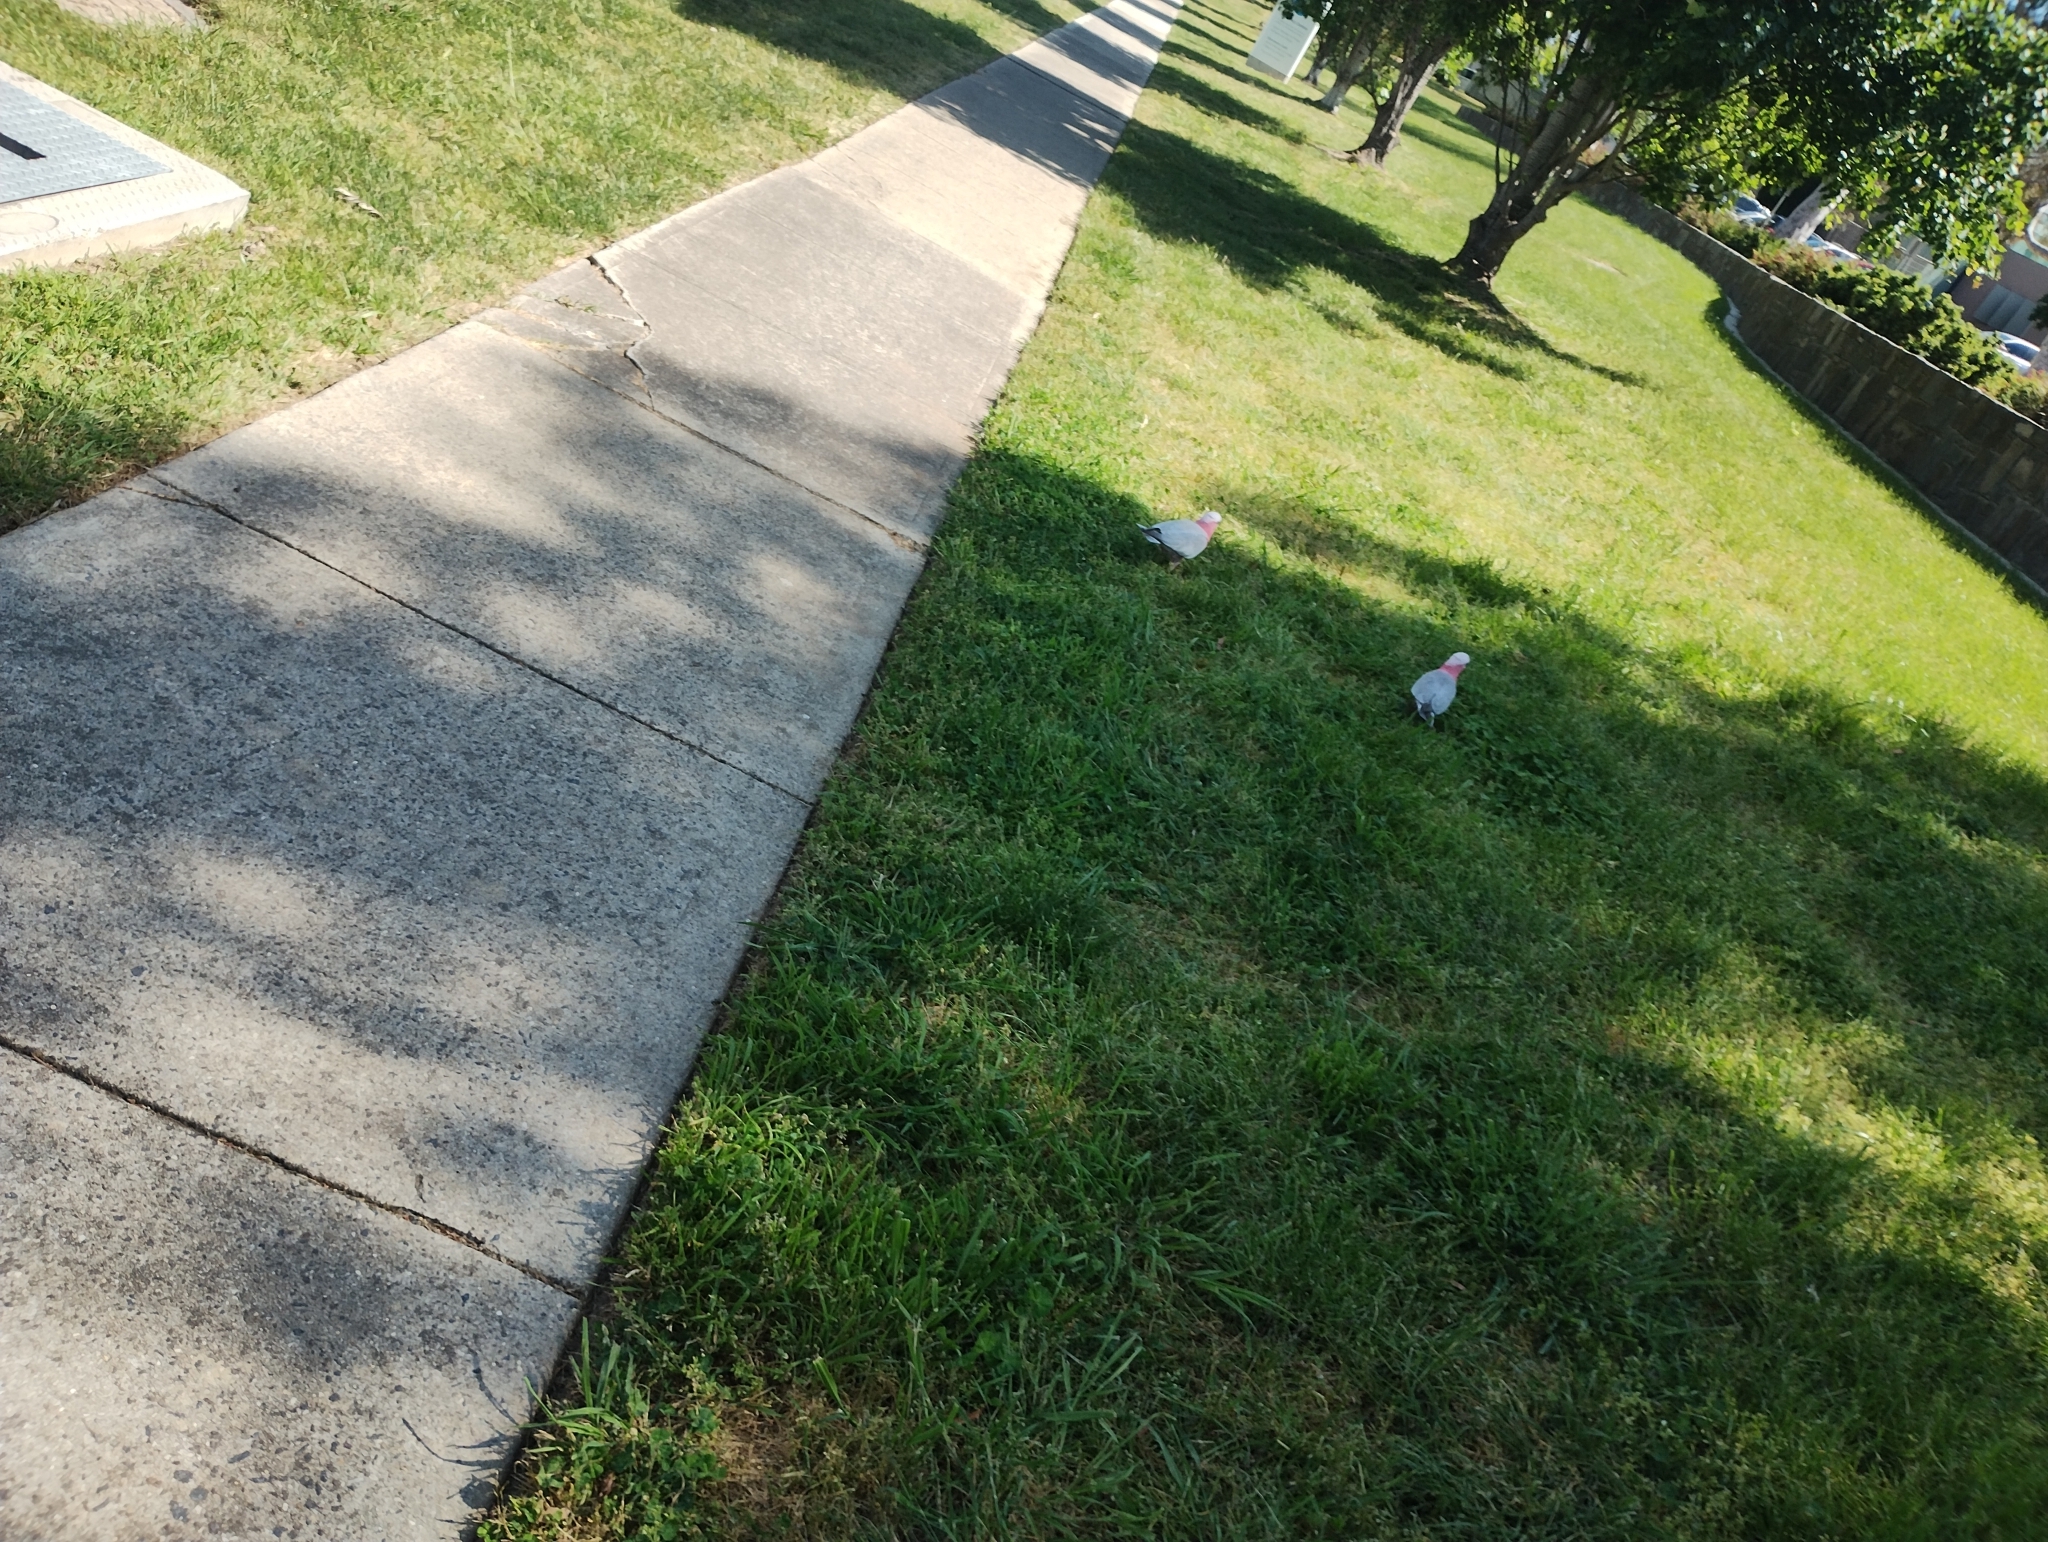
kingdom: Animalia
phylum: Chordata
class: Aves
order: Psittaciformes
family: Psittacidae
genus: Eolophus
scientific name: Eolophus roseicapilla
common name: Galah
